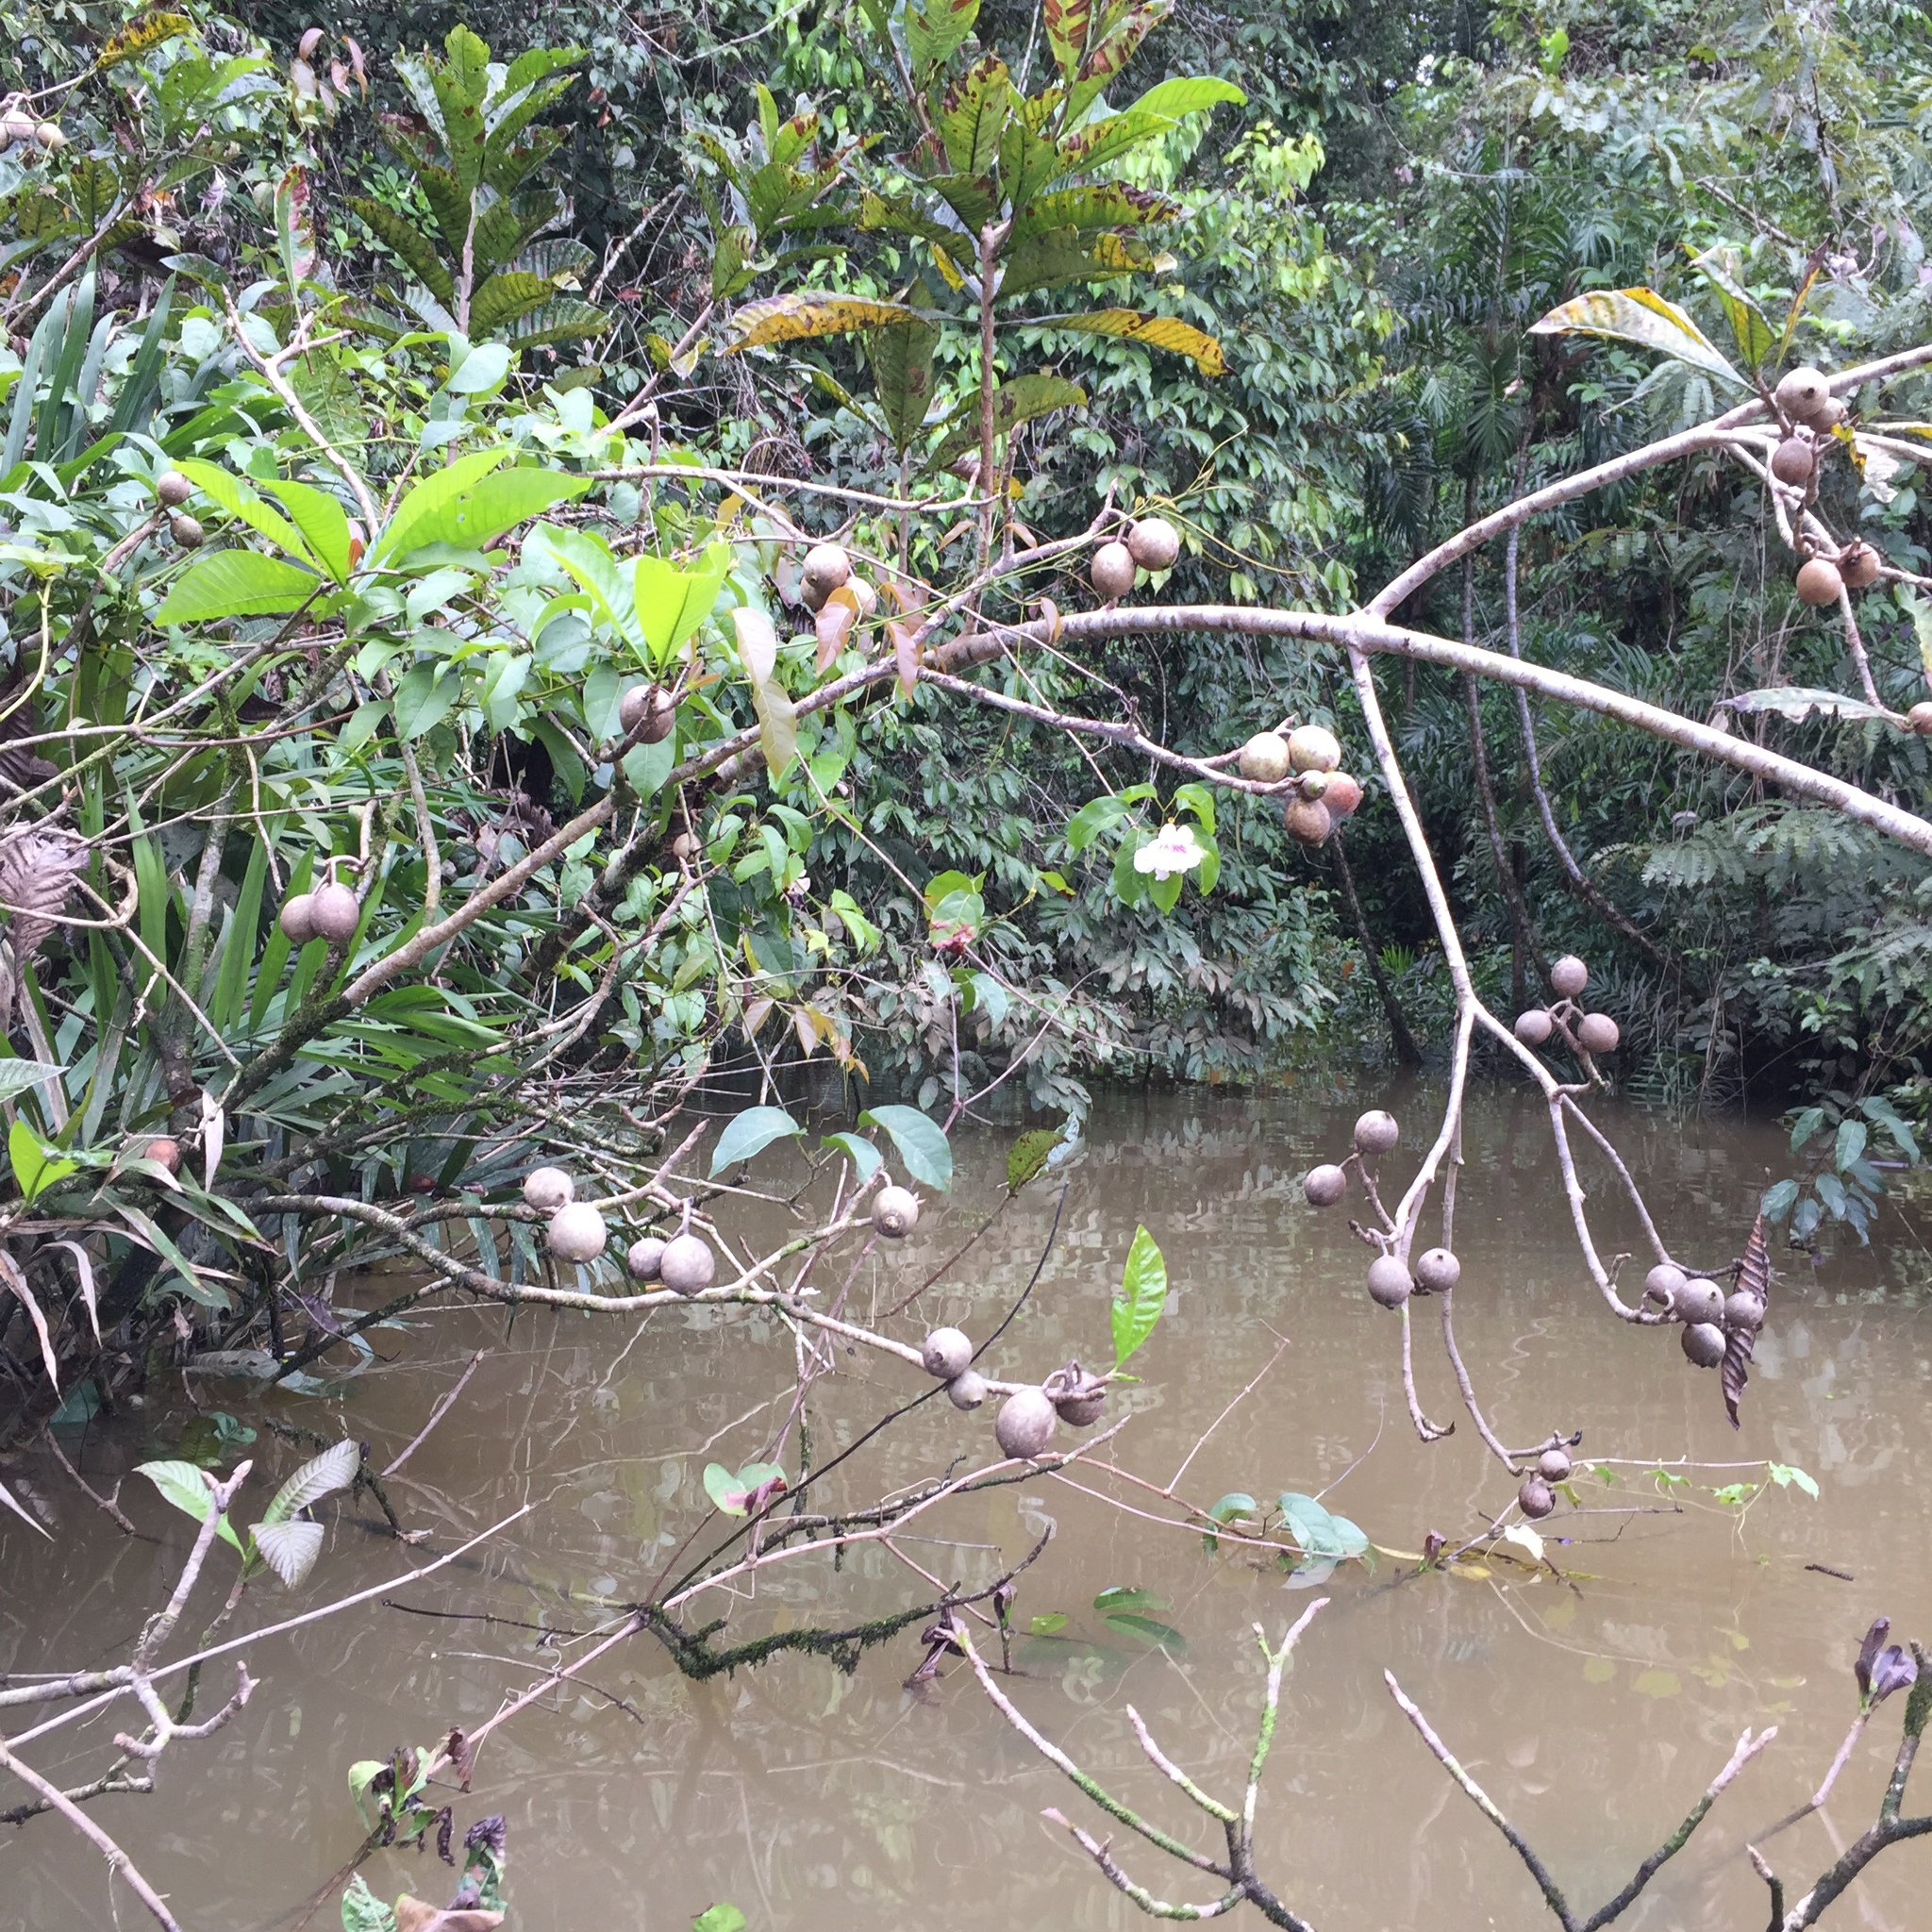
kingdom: Plantae
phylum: Tracheophyta
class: Magnoliopsida
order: Gentianales
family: Rubiaceae
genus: Genipa
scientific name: Genipa americana
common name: Genipap
